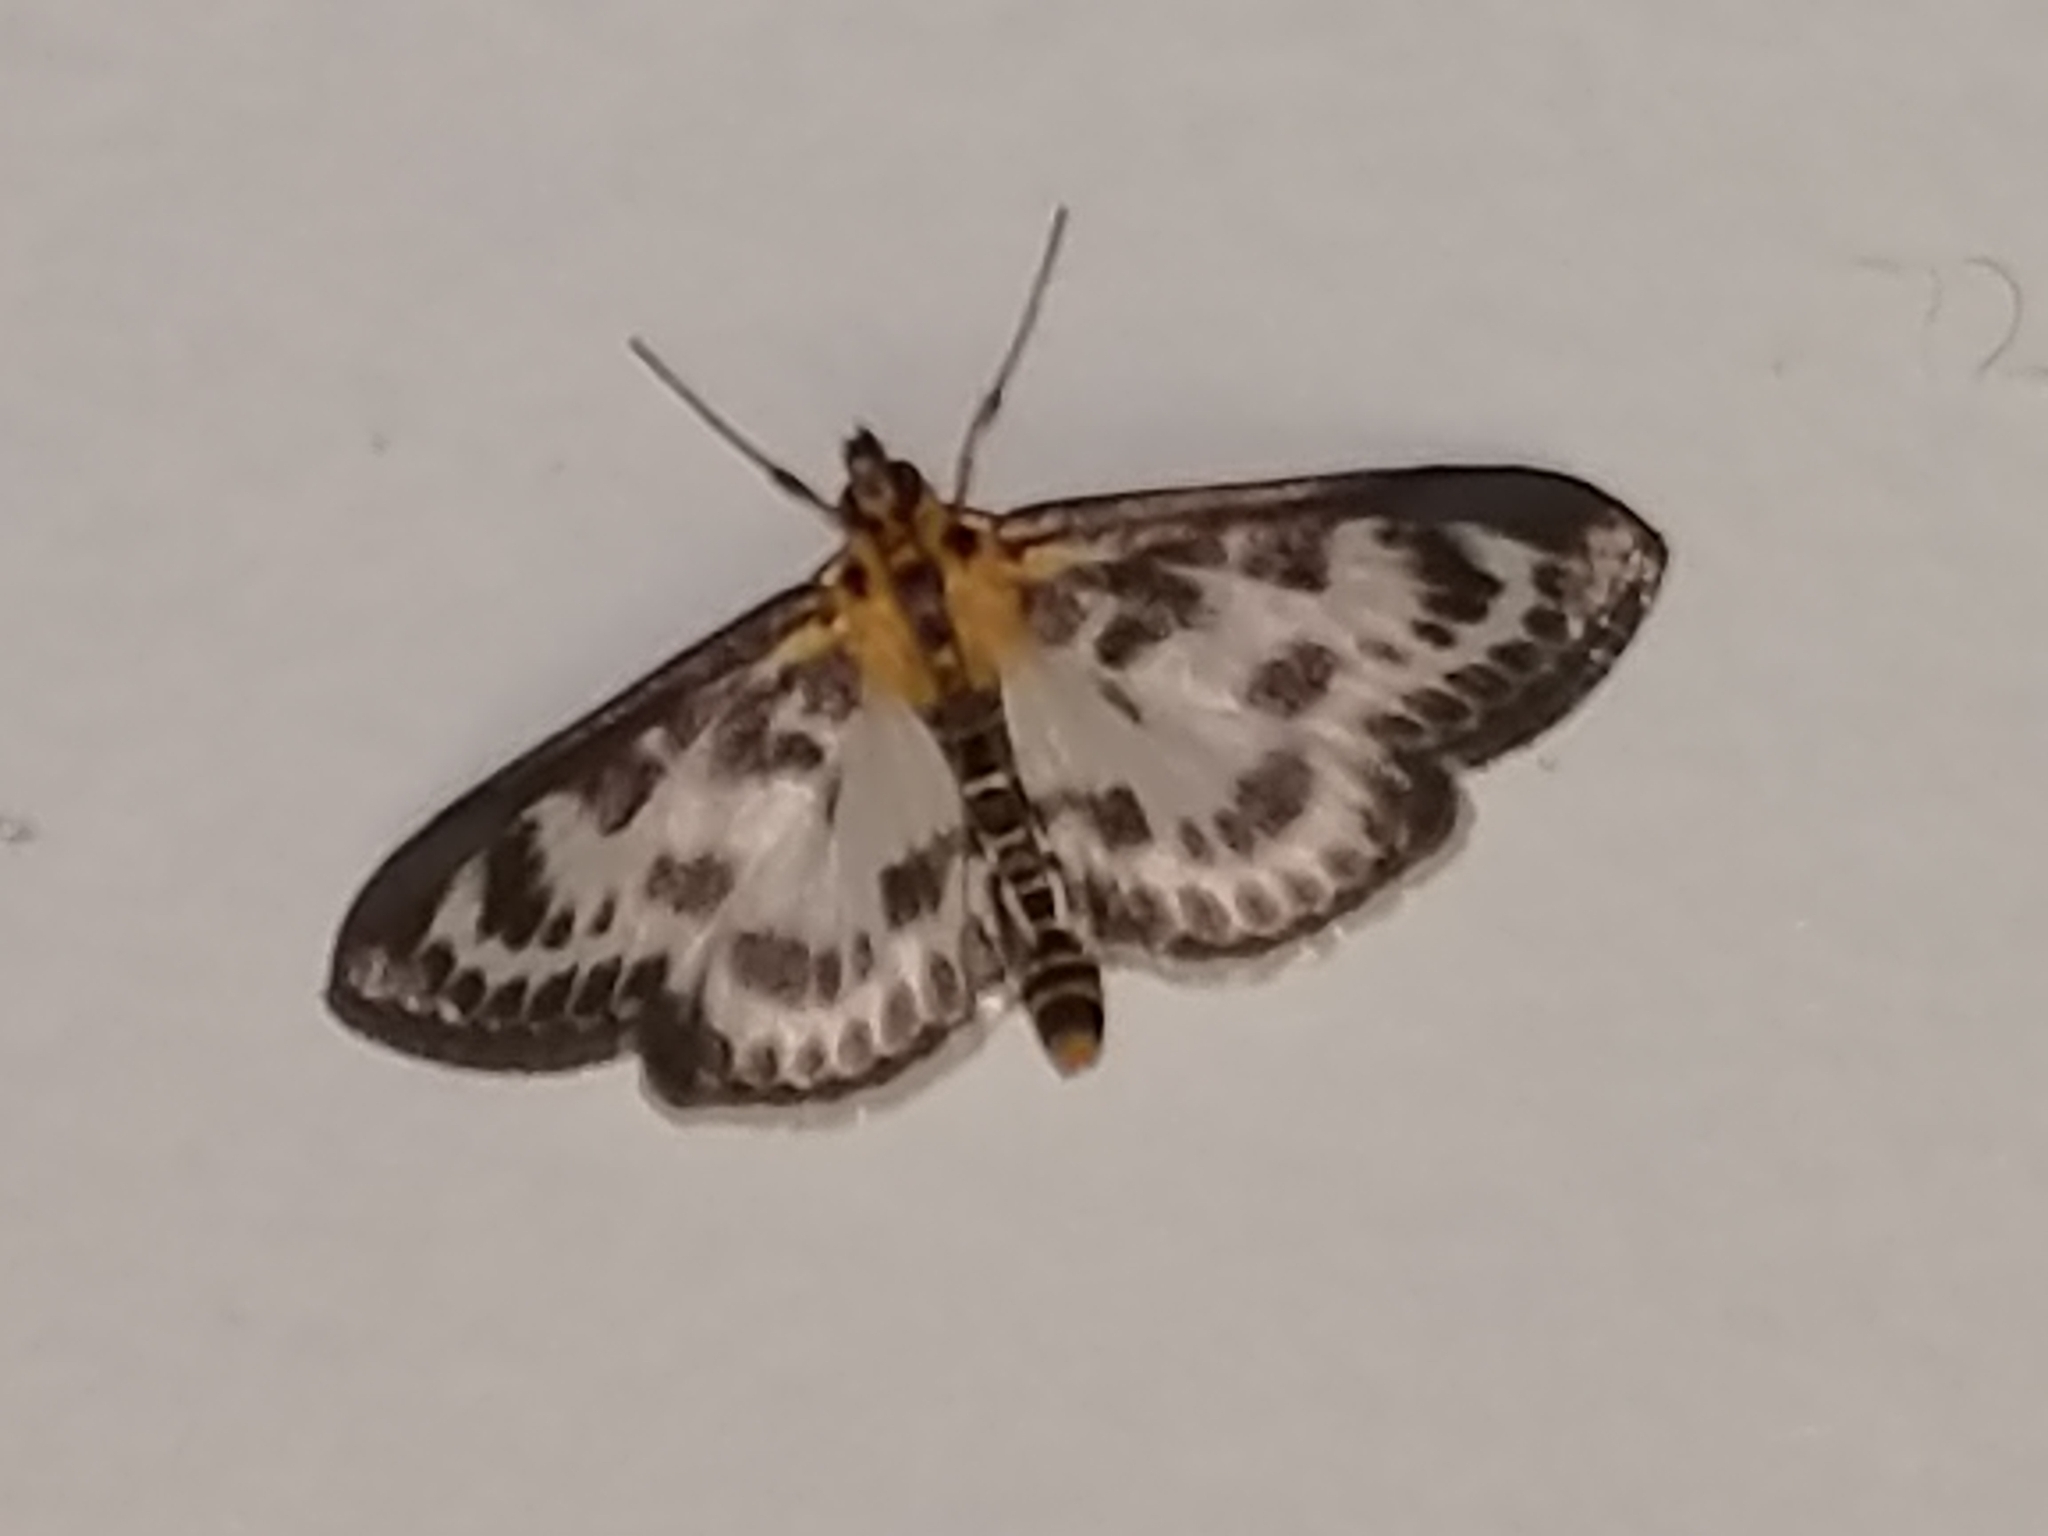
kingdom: Animalia
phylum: Arthropoda
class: Insecta
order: Lepidoptera
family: Crambidae
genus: Anania
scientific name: Anania hortulata
